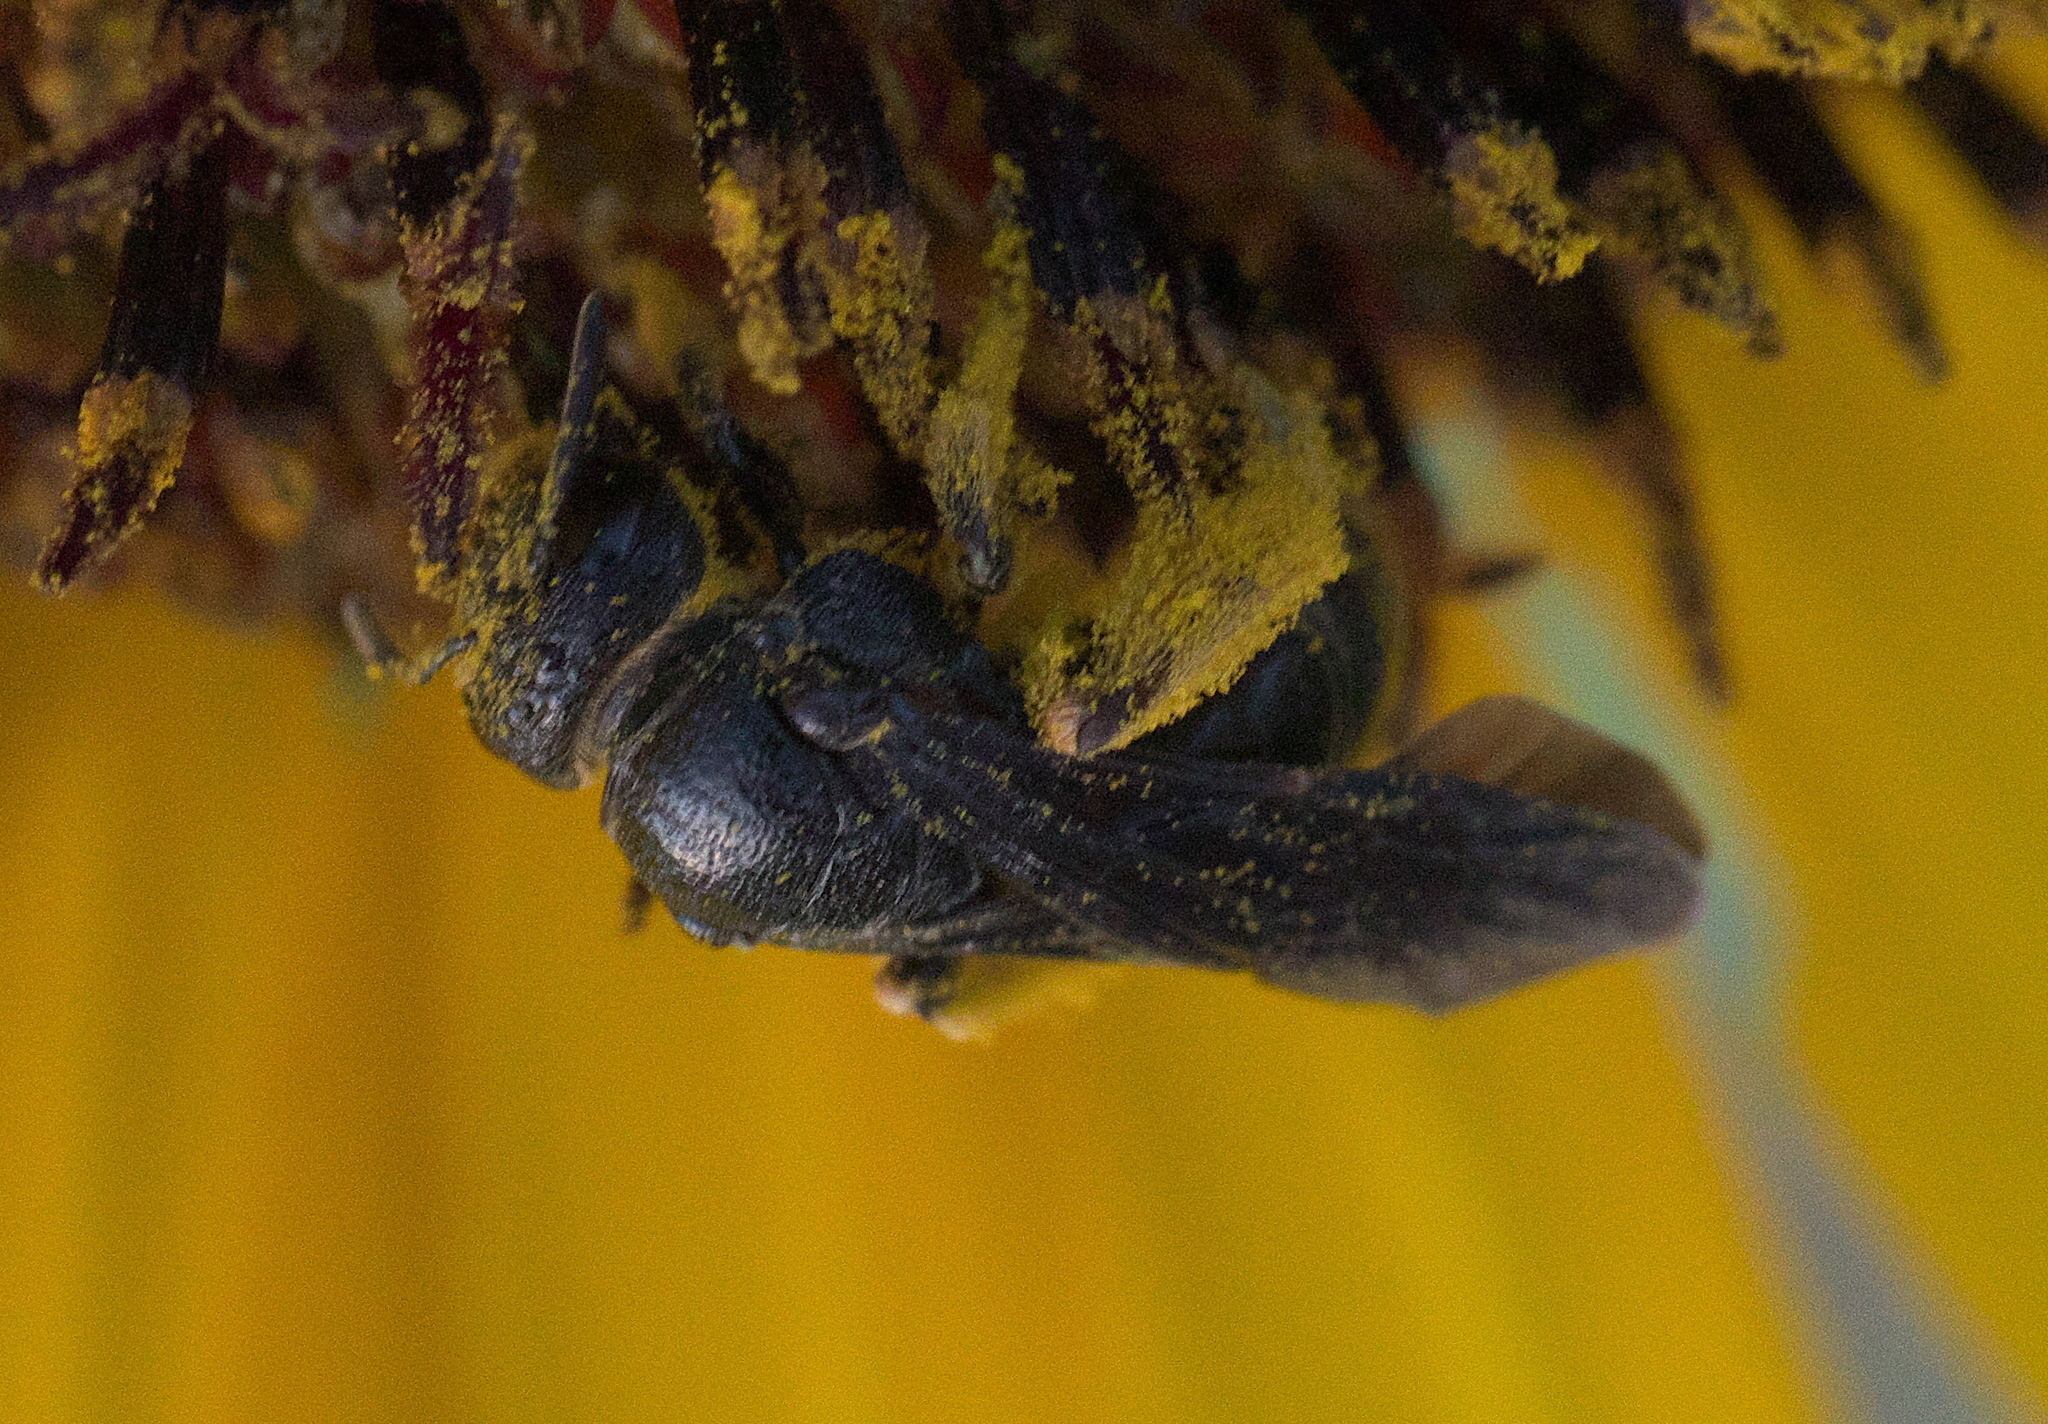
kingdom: Animalia
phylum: Arthropoda
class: Insecta
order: Hymenoptera
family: Andrenidae
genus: Protandrena
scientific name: Protandrena
